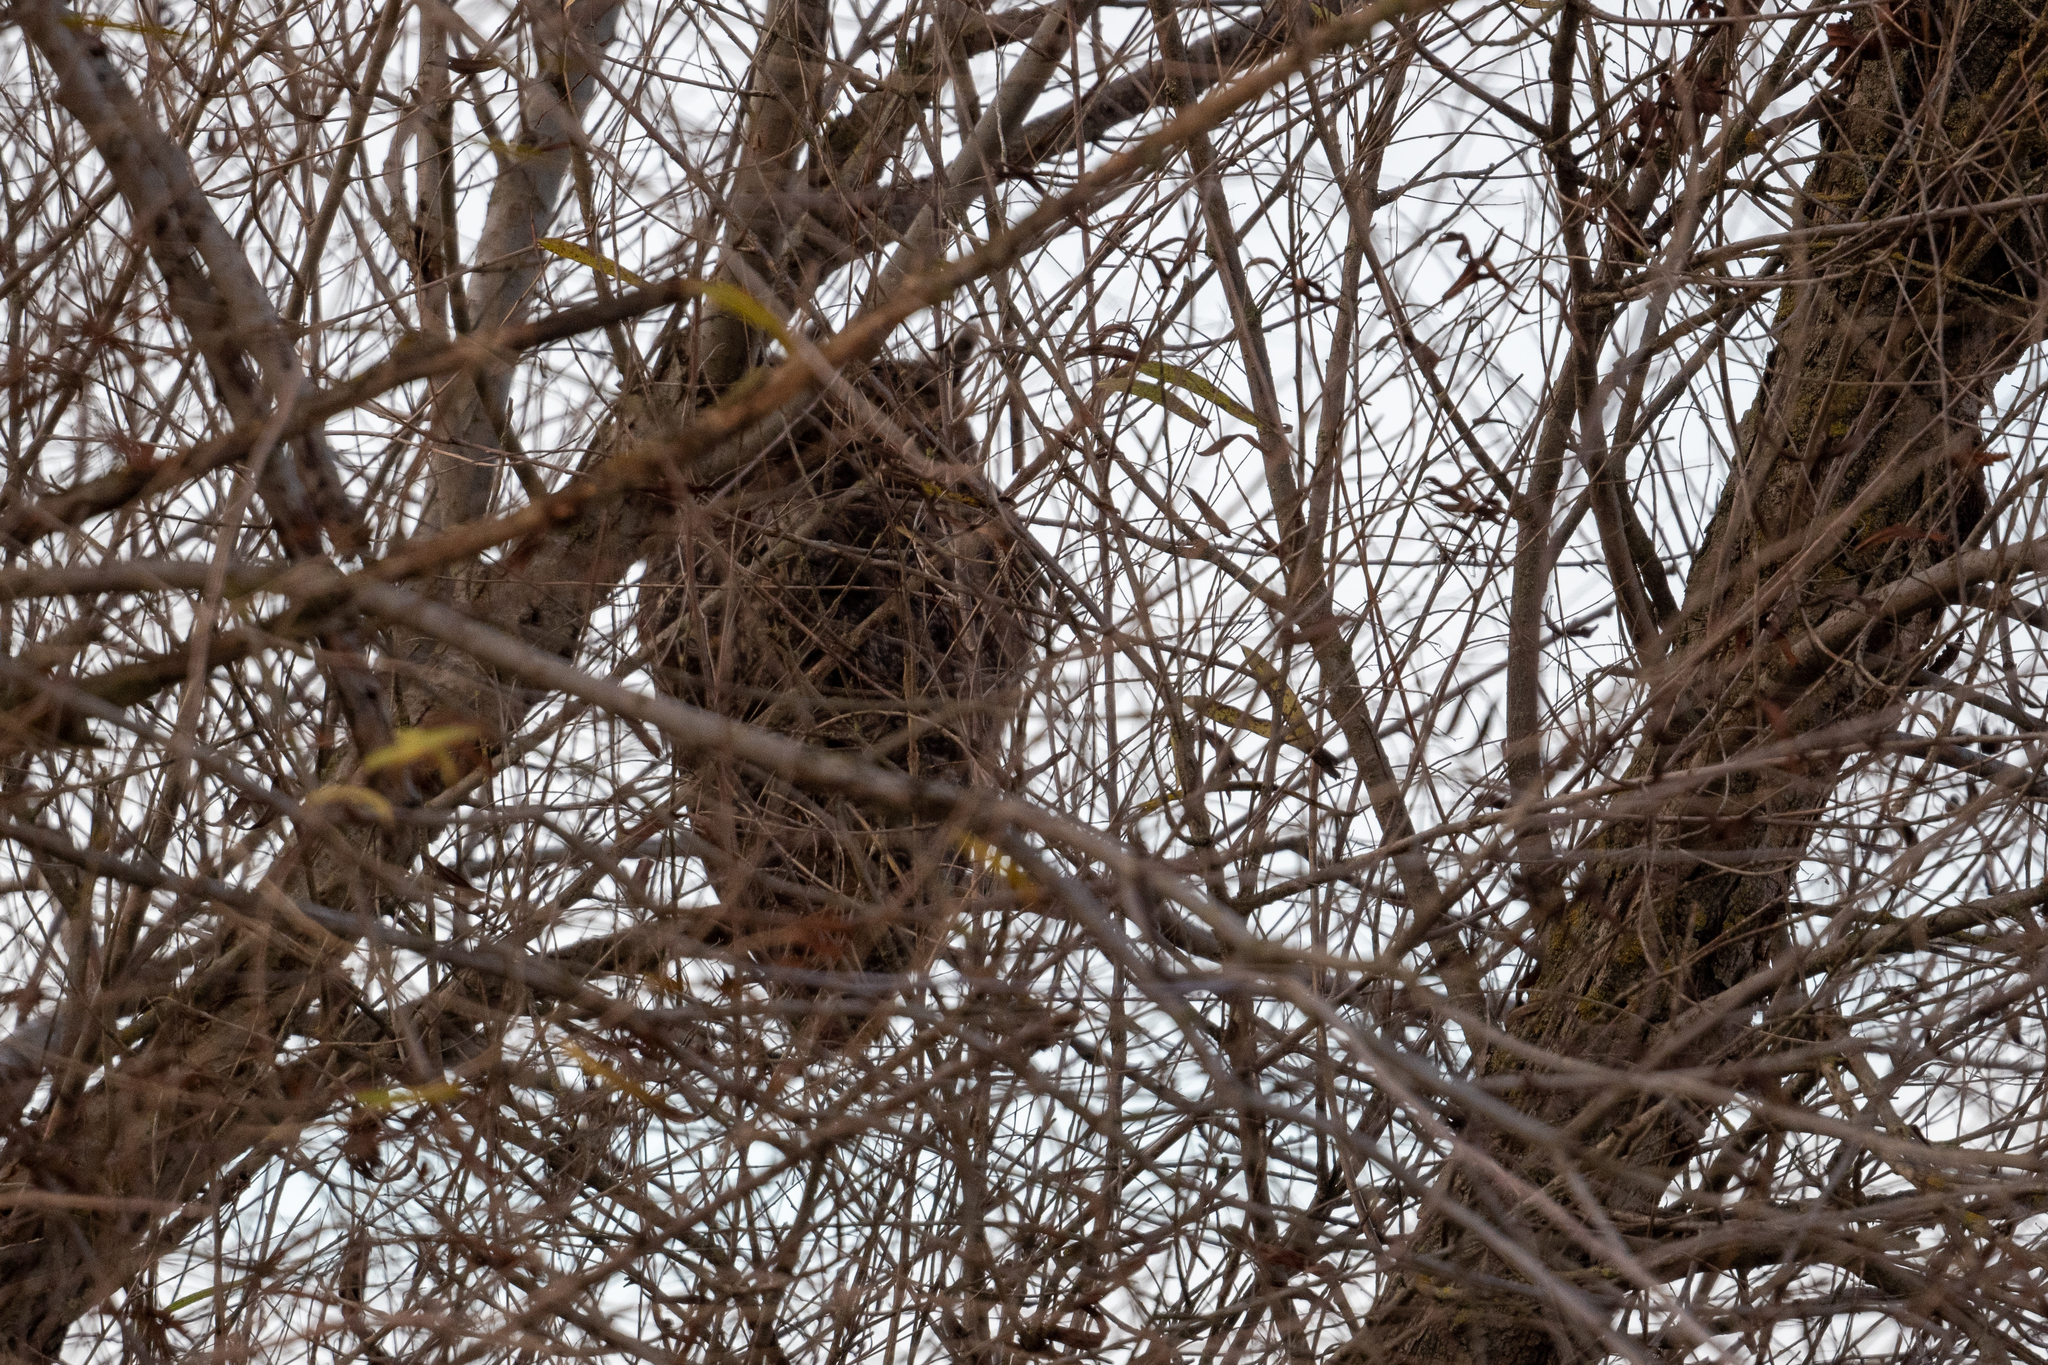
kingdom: Animalia
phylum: Chordata
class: Aves
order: Strigiformes
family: Strigidae
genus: Bubo
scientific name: Bubo virginianus
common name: Great horned owl
